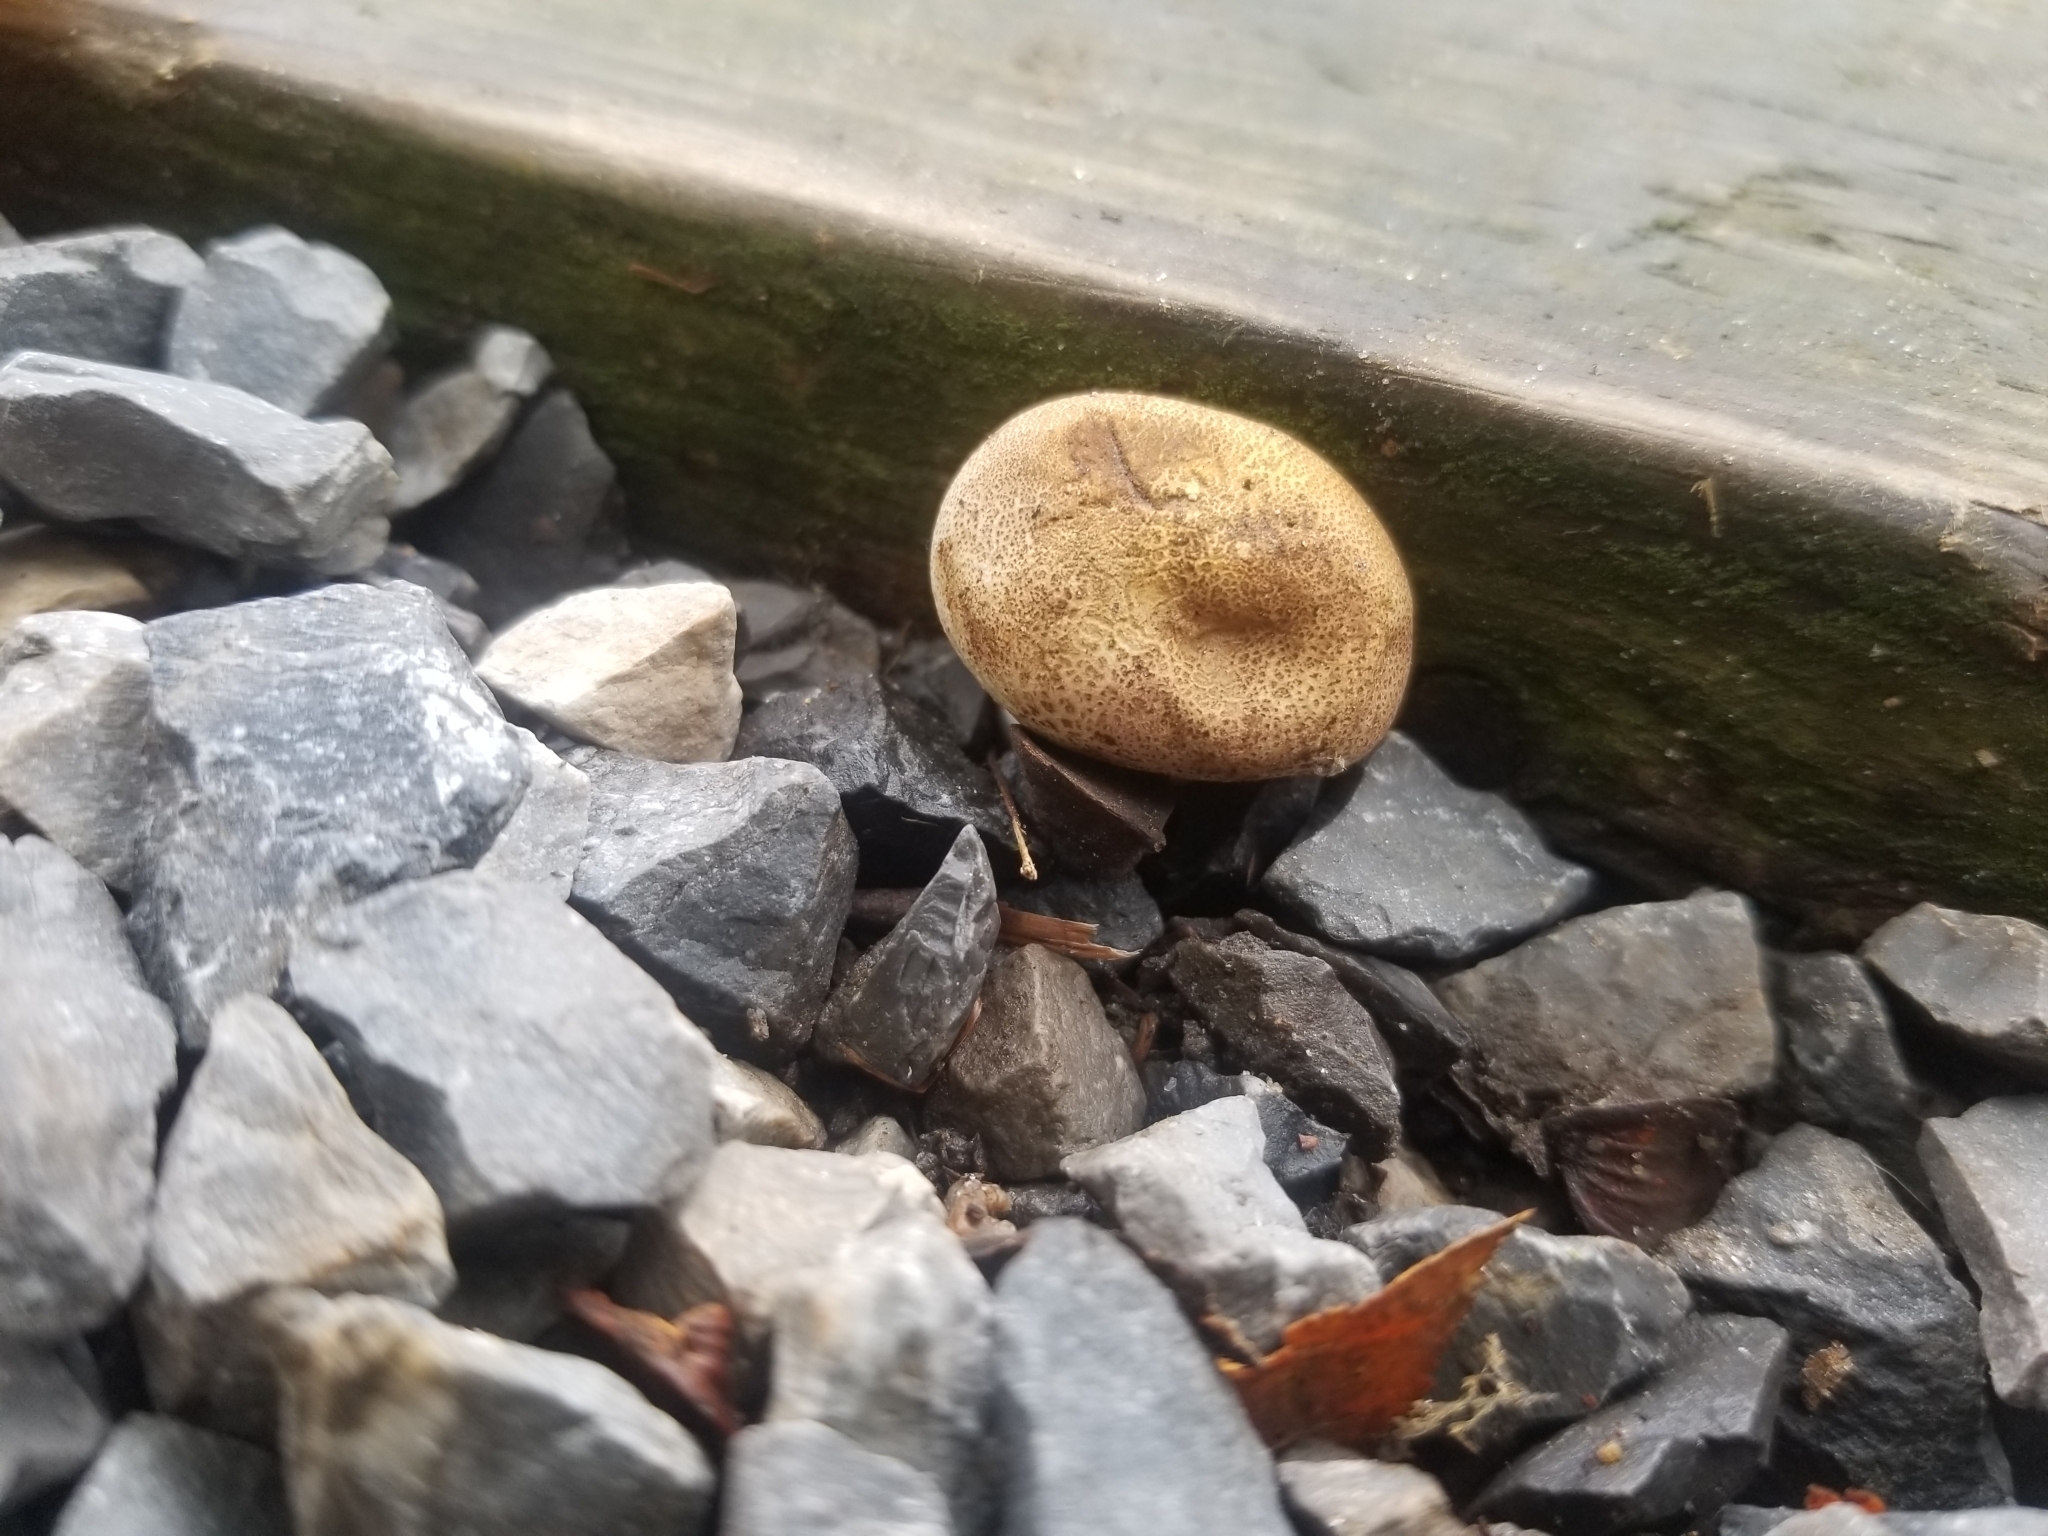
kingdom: Fungi
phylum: Basidiomycota
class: Agaricomycetes
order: Boletales
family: Sclerodermataceae
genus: Scleroderma
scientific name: Scleroderma citrinum
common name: Common earthball
